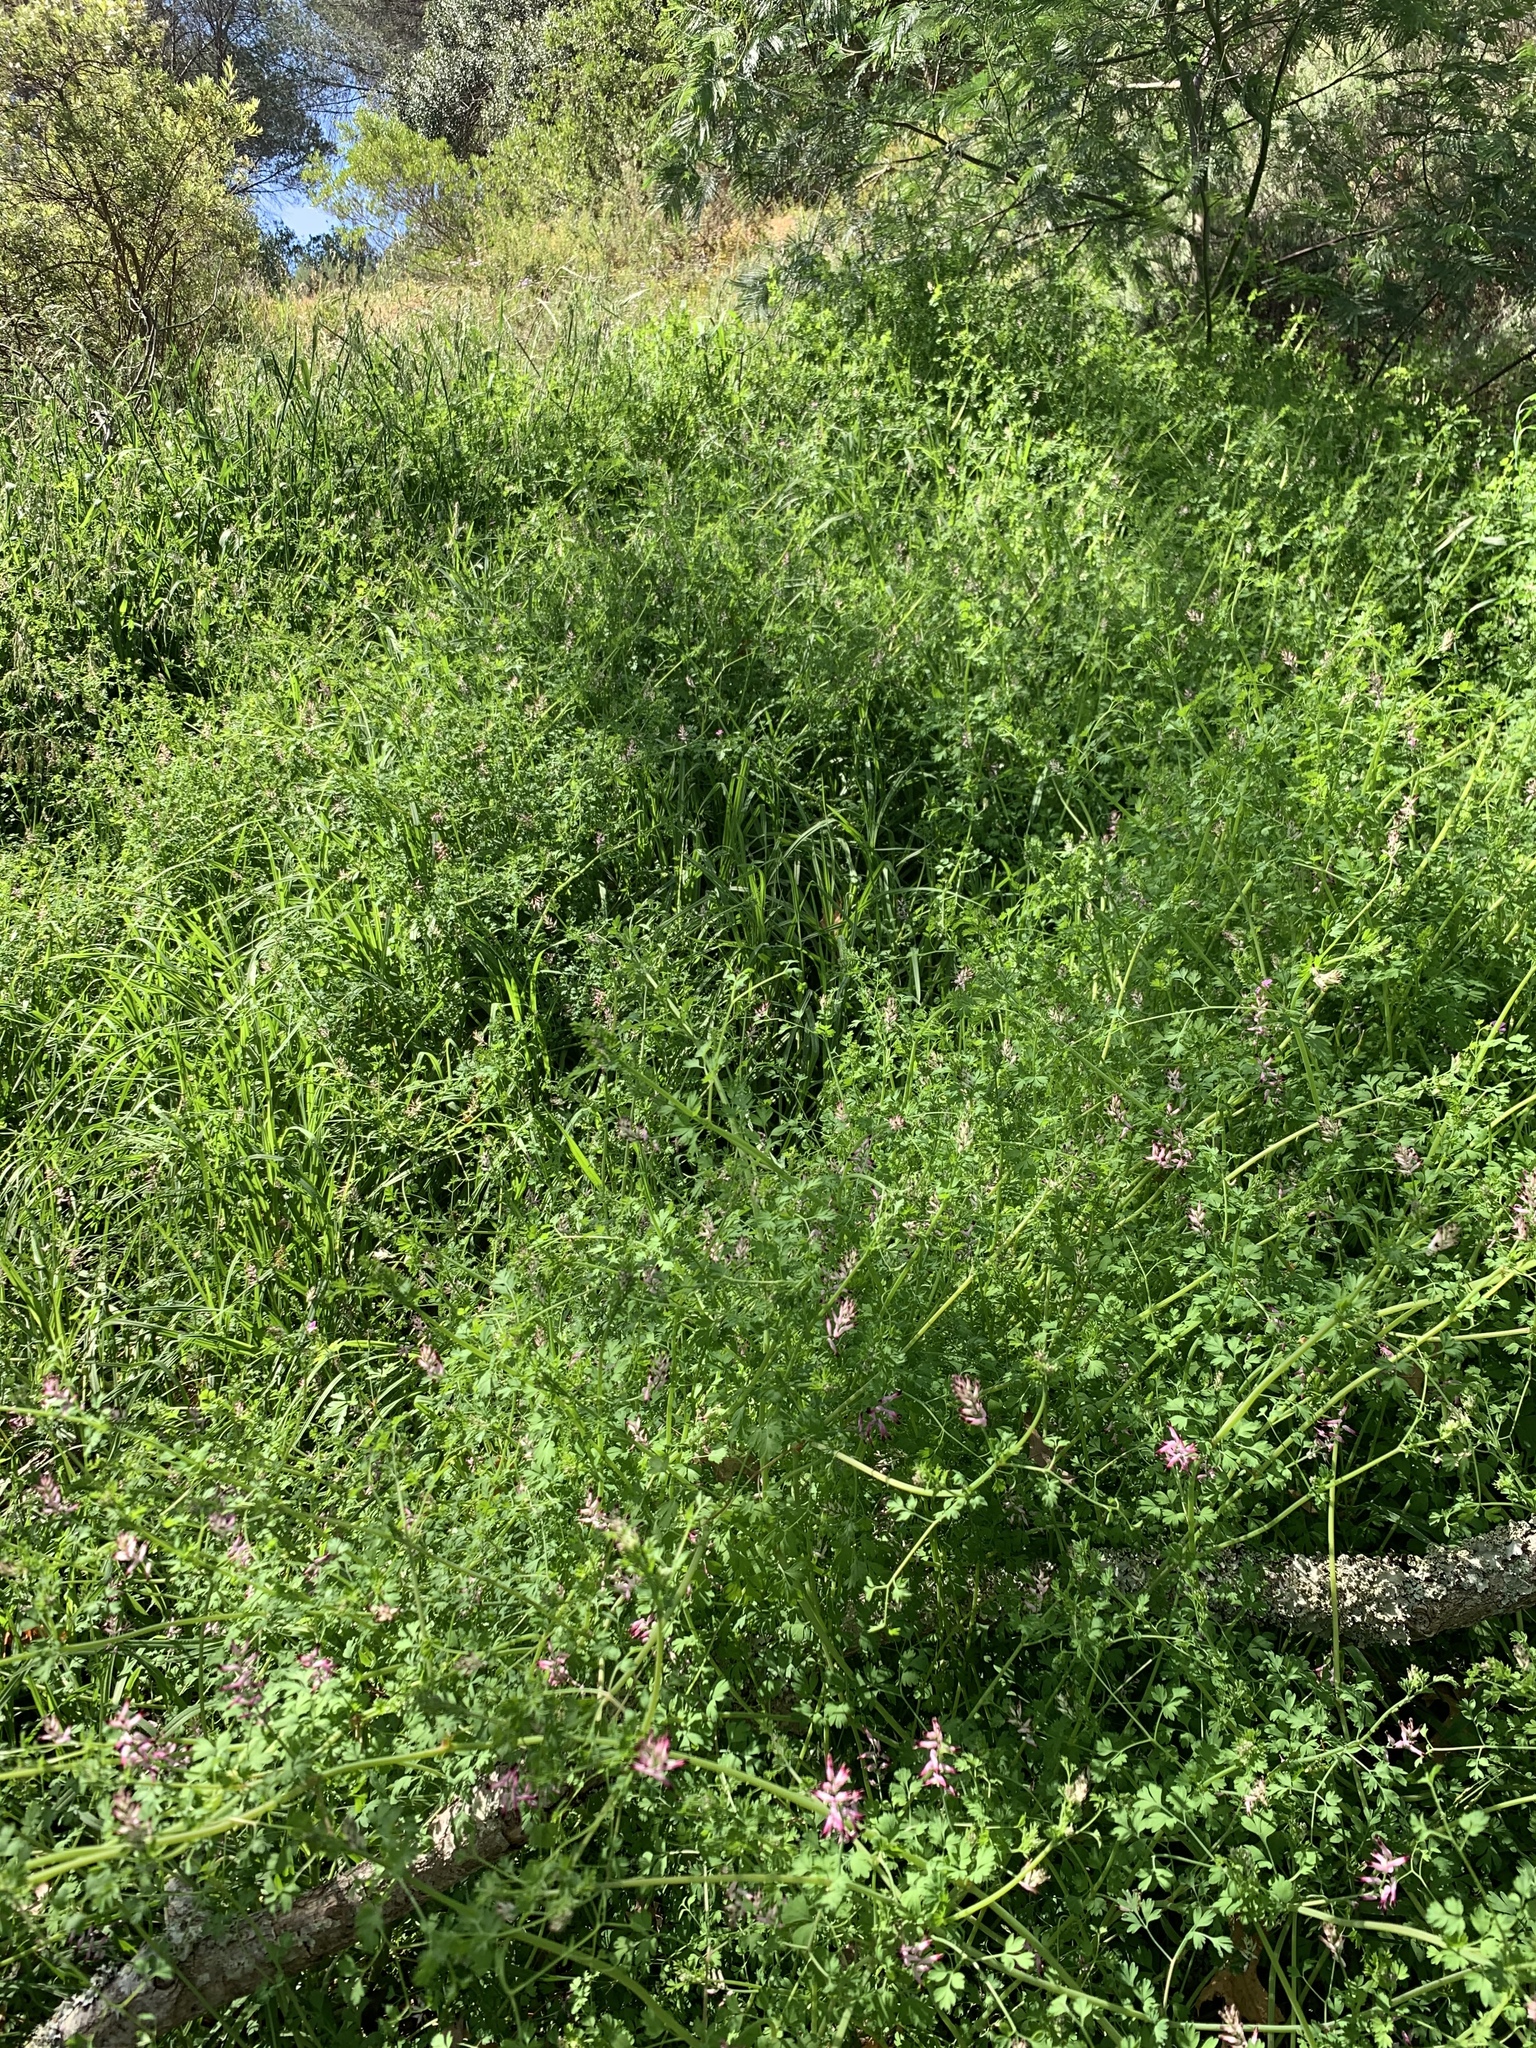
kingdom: Plantae
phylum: Tracheophyta
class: Magnoliopsida
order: Ranunculales
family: Papaveraceae
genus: Fumaria
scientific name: Fumaria muralis
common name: Common ramping-fumitory
